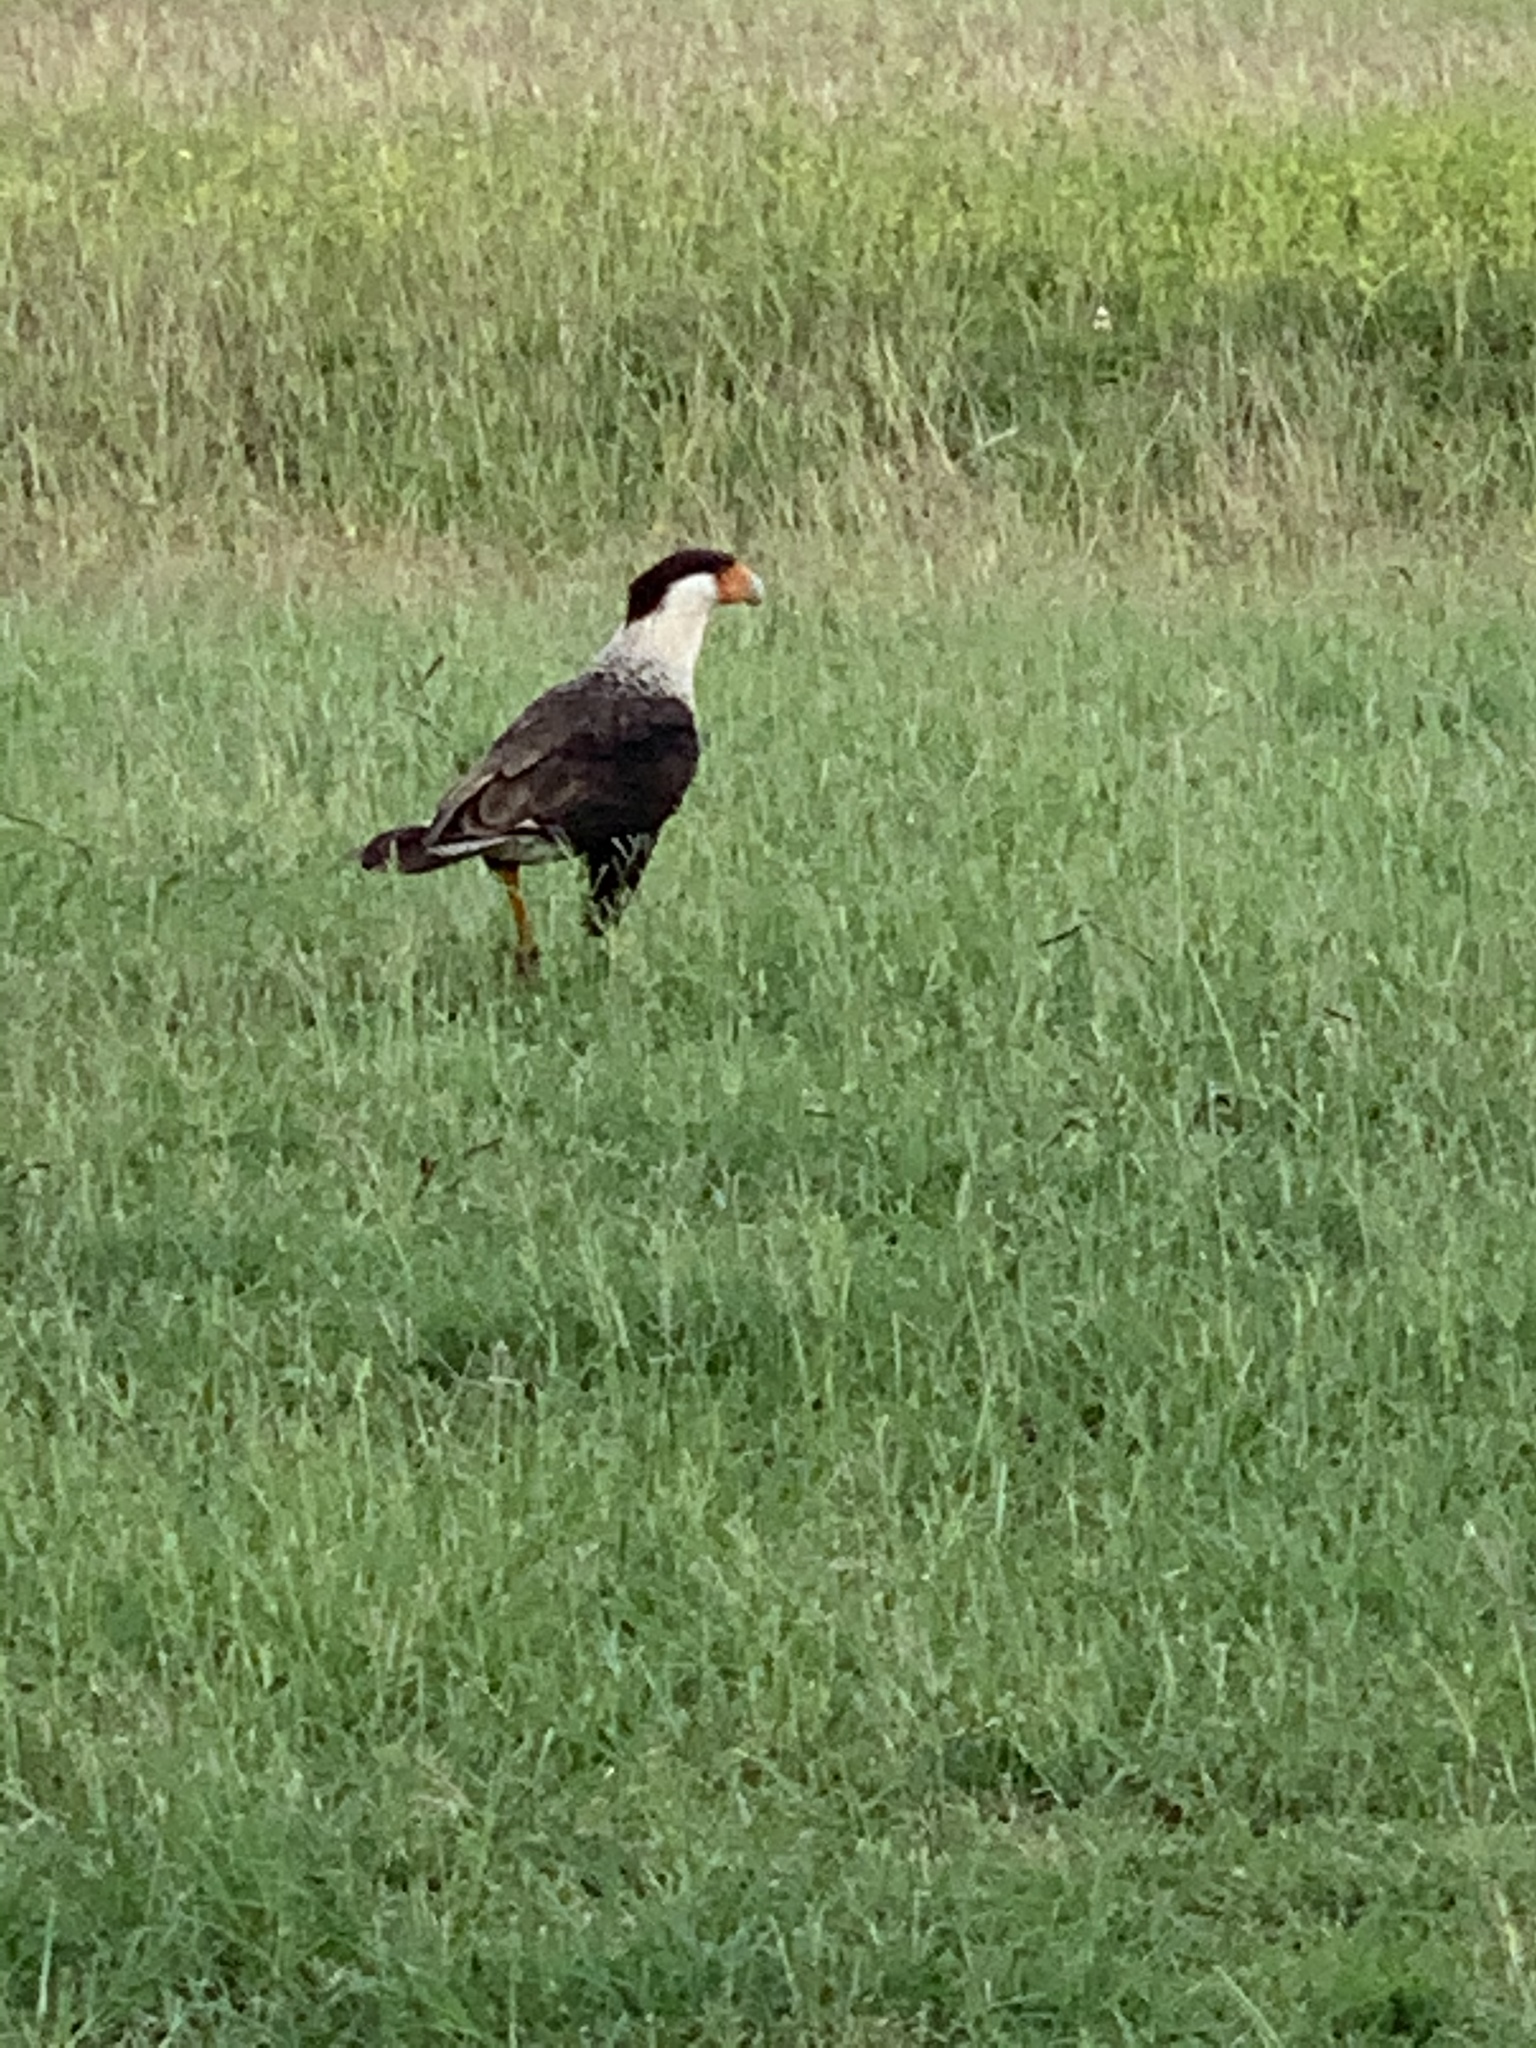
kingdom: Animalia
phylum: Chordata
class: Aves
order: Falconiformes
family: Falconidae
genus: Caracara
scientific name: Caracara plancus
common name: Southern caracara
